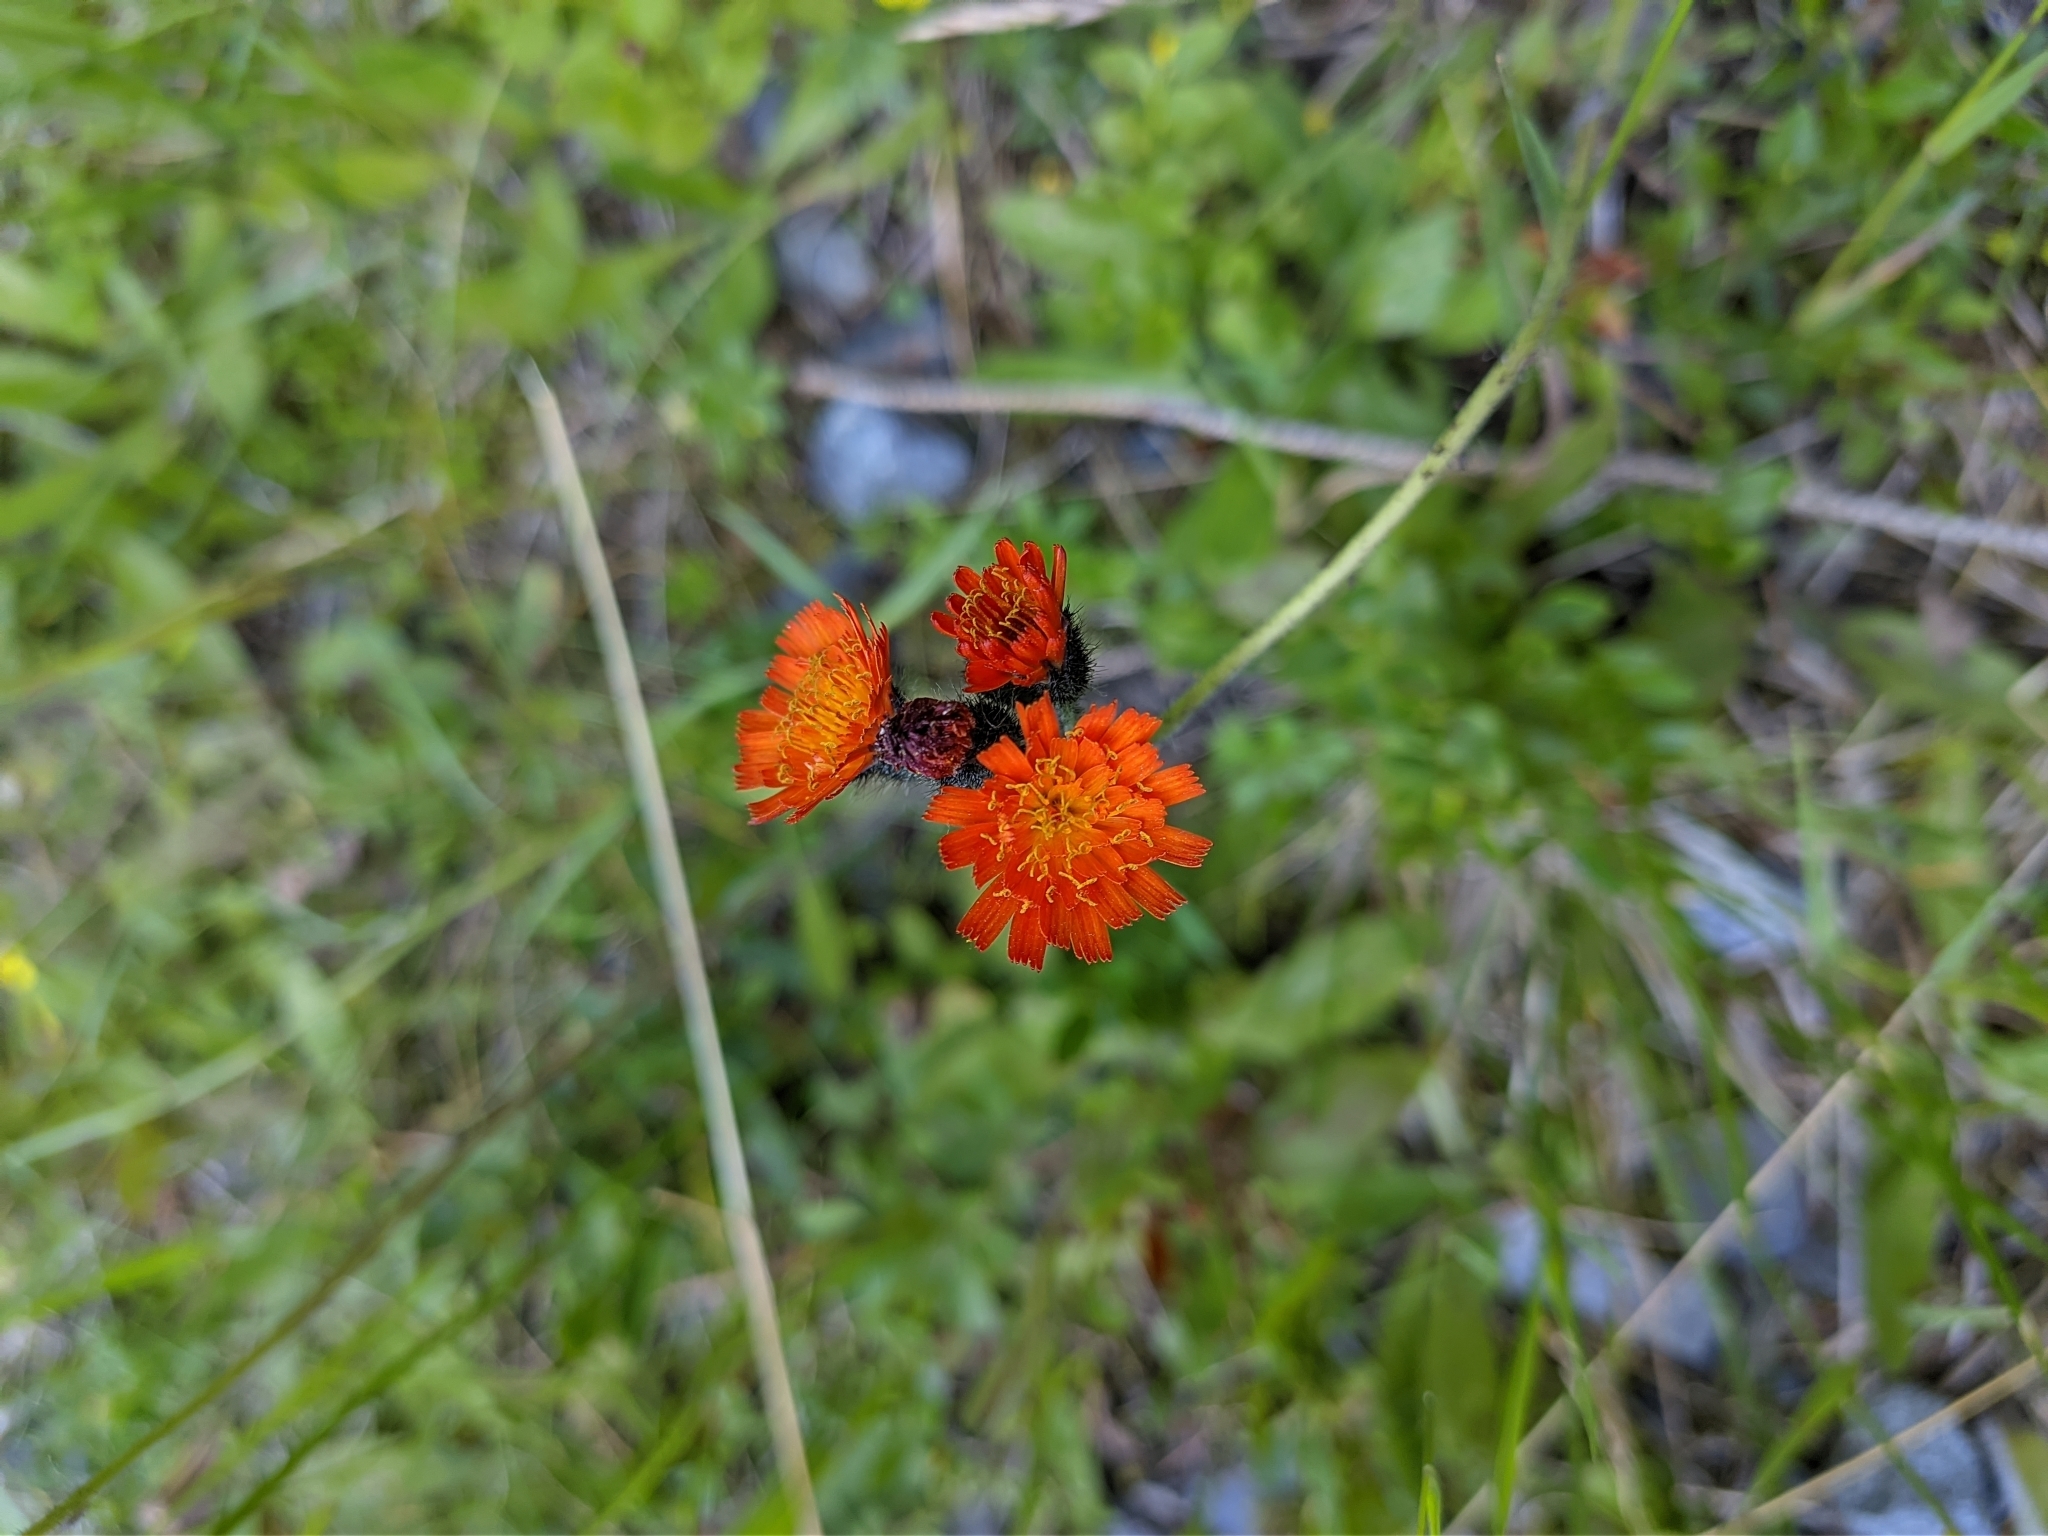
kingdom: Plantae
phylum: Tracheophyta
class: Magnoliopsida
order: Asterales
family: Asteraceae
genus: Pilosella
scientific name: Pilosella aurantiaca
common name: Fox-and-cubs
